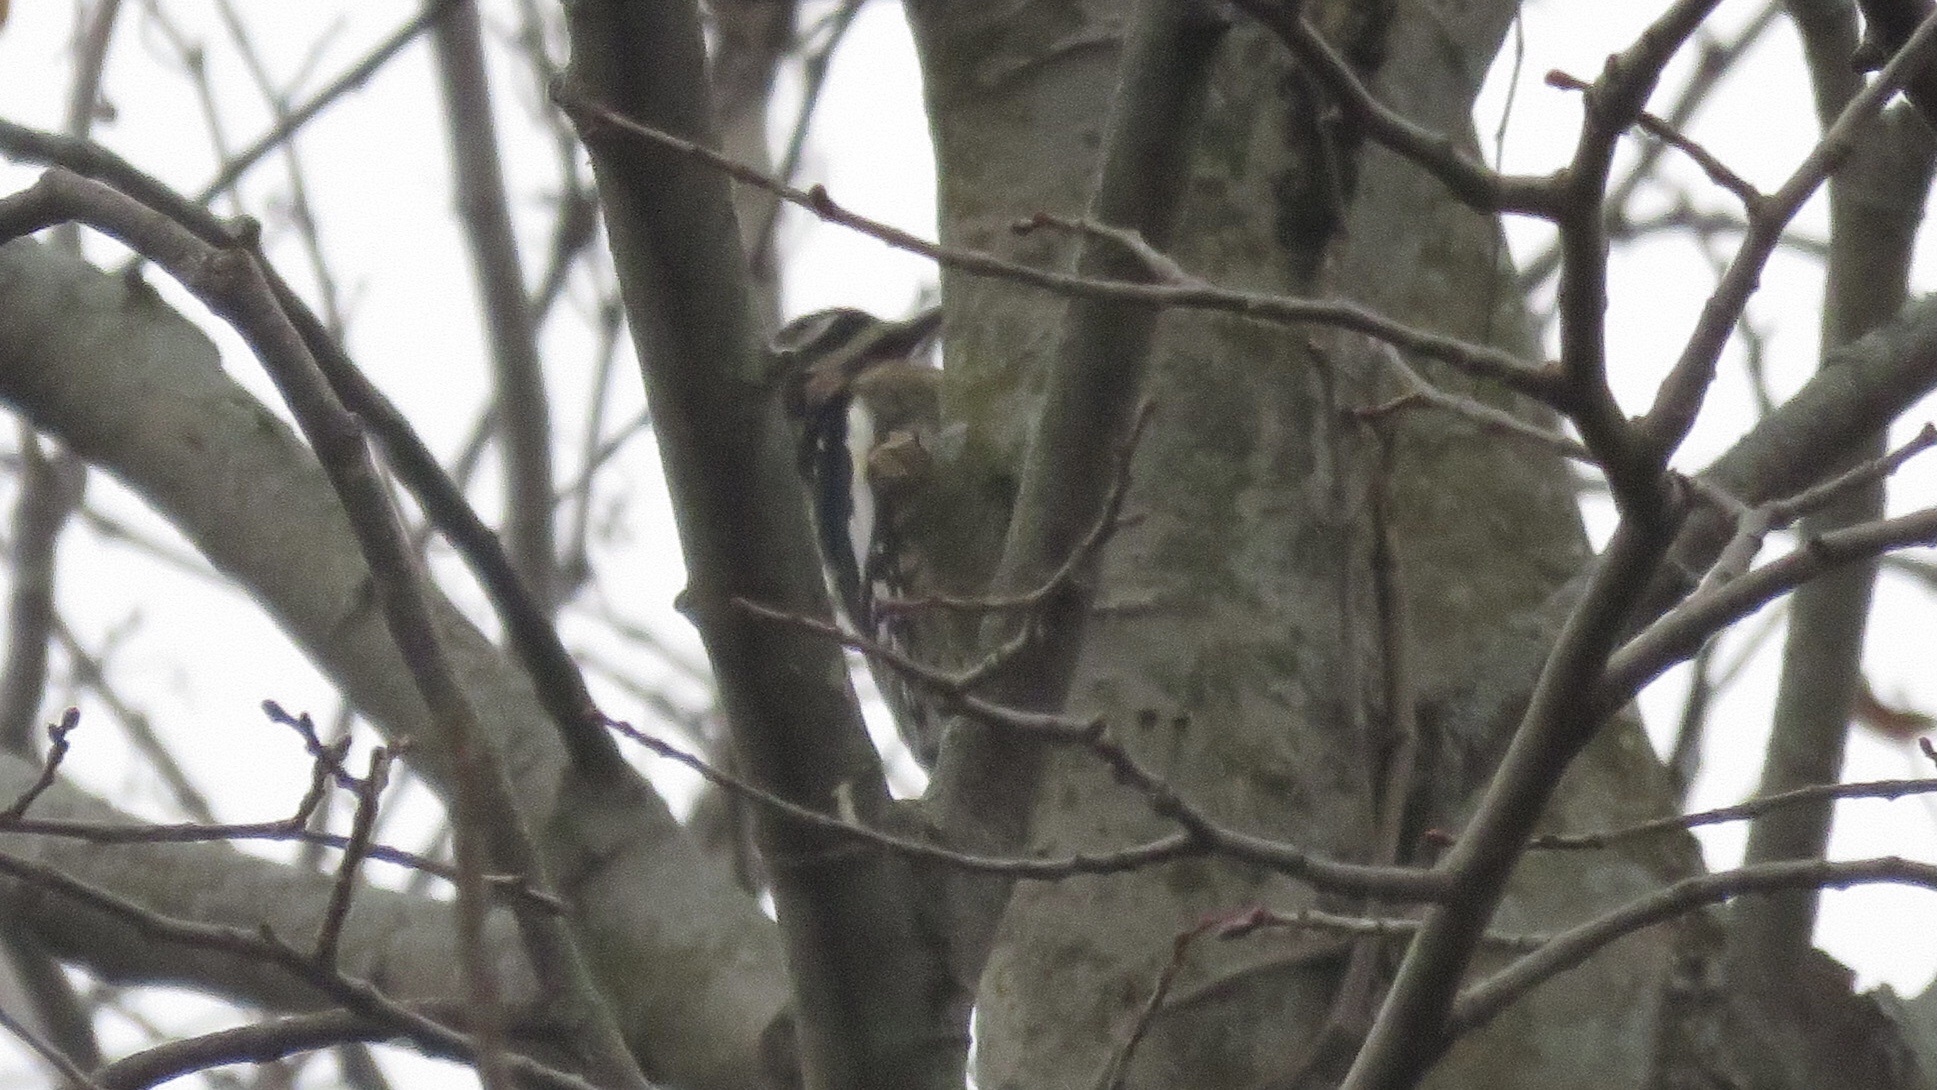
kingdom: Animalia
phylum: Chordata
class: Aves
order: Piciformes
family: Picidae
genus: Sphyrapicus
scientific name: Sphyrapicus varius
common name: Yellow-bellied sapsucker
